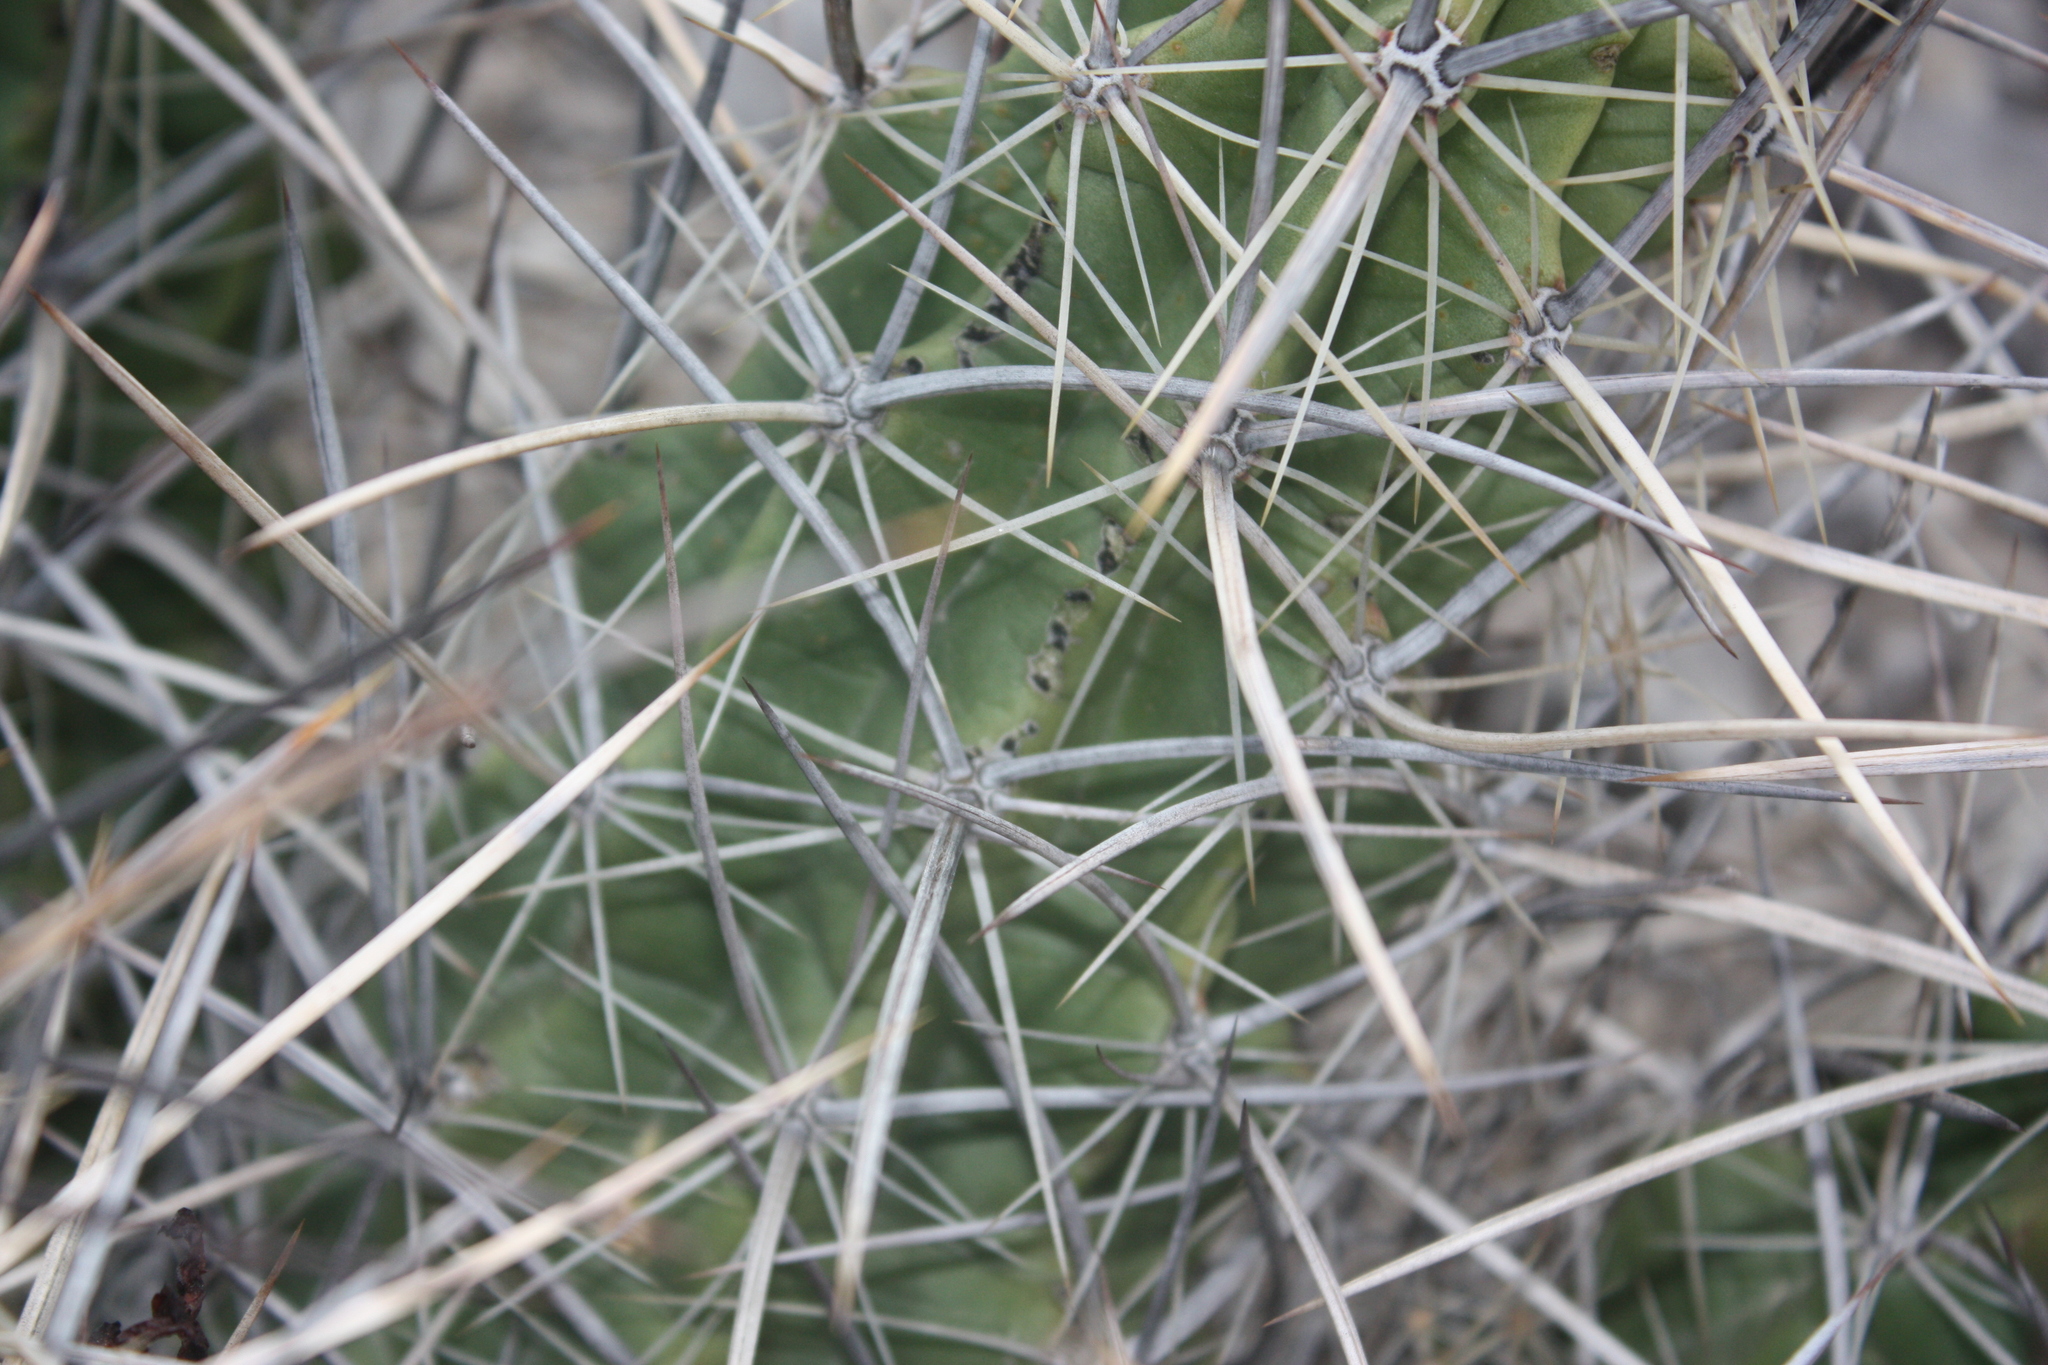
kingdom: Plantae
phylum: Tracheophyta
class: Magnoliopsida
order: Caryophyllales
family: Cactaceae
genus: Echinocereus
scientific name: Echinocereus enneacanthus
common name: Pitaya
